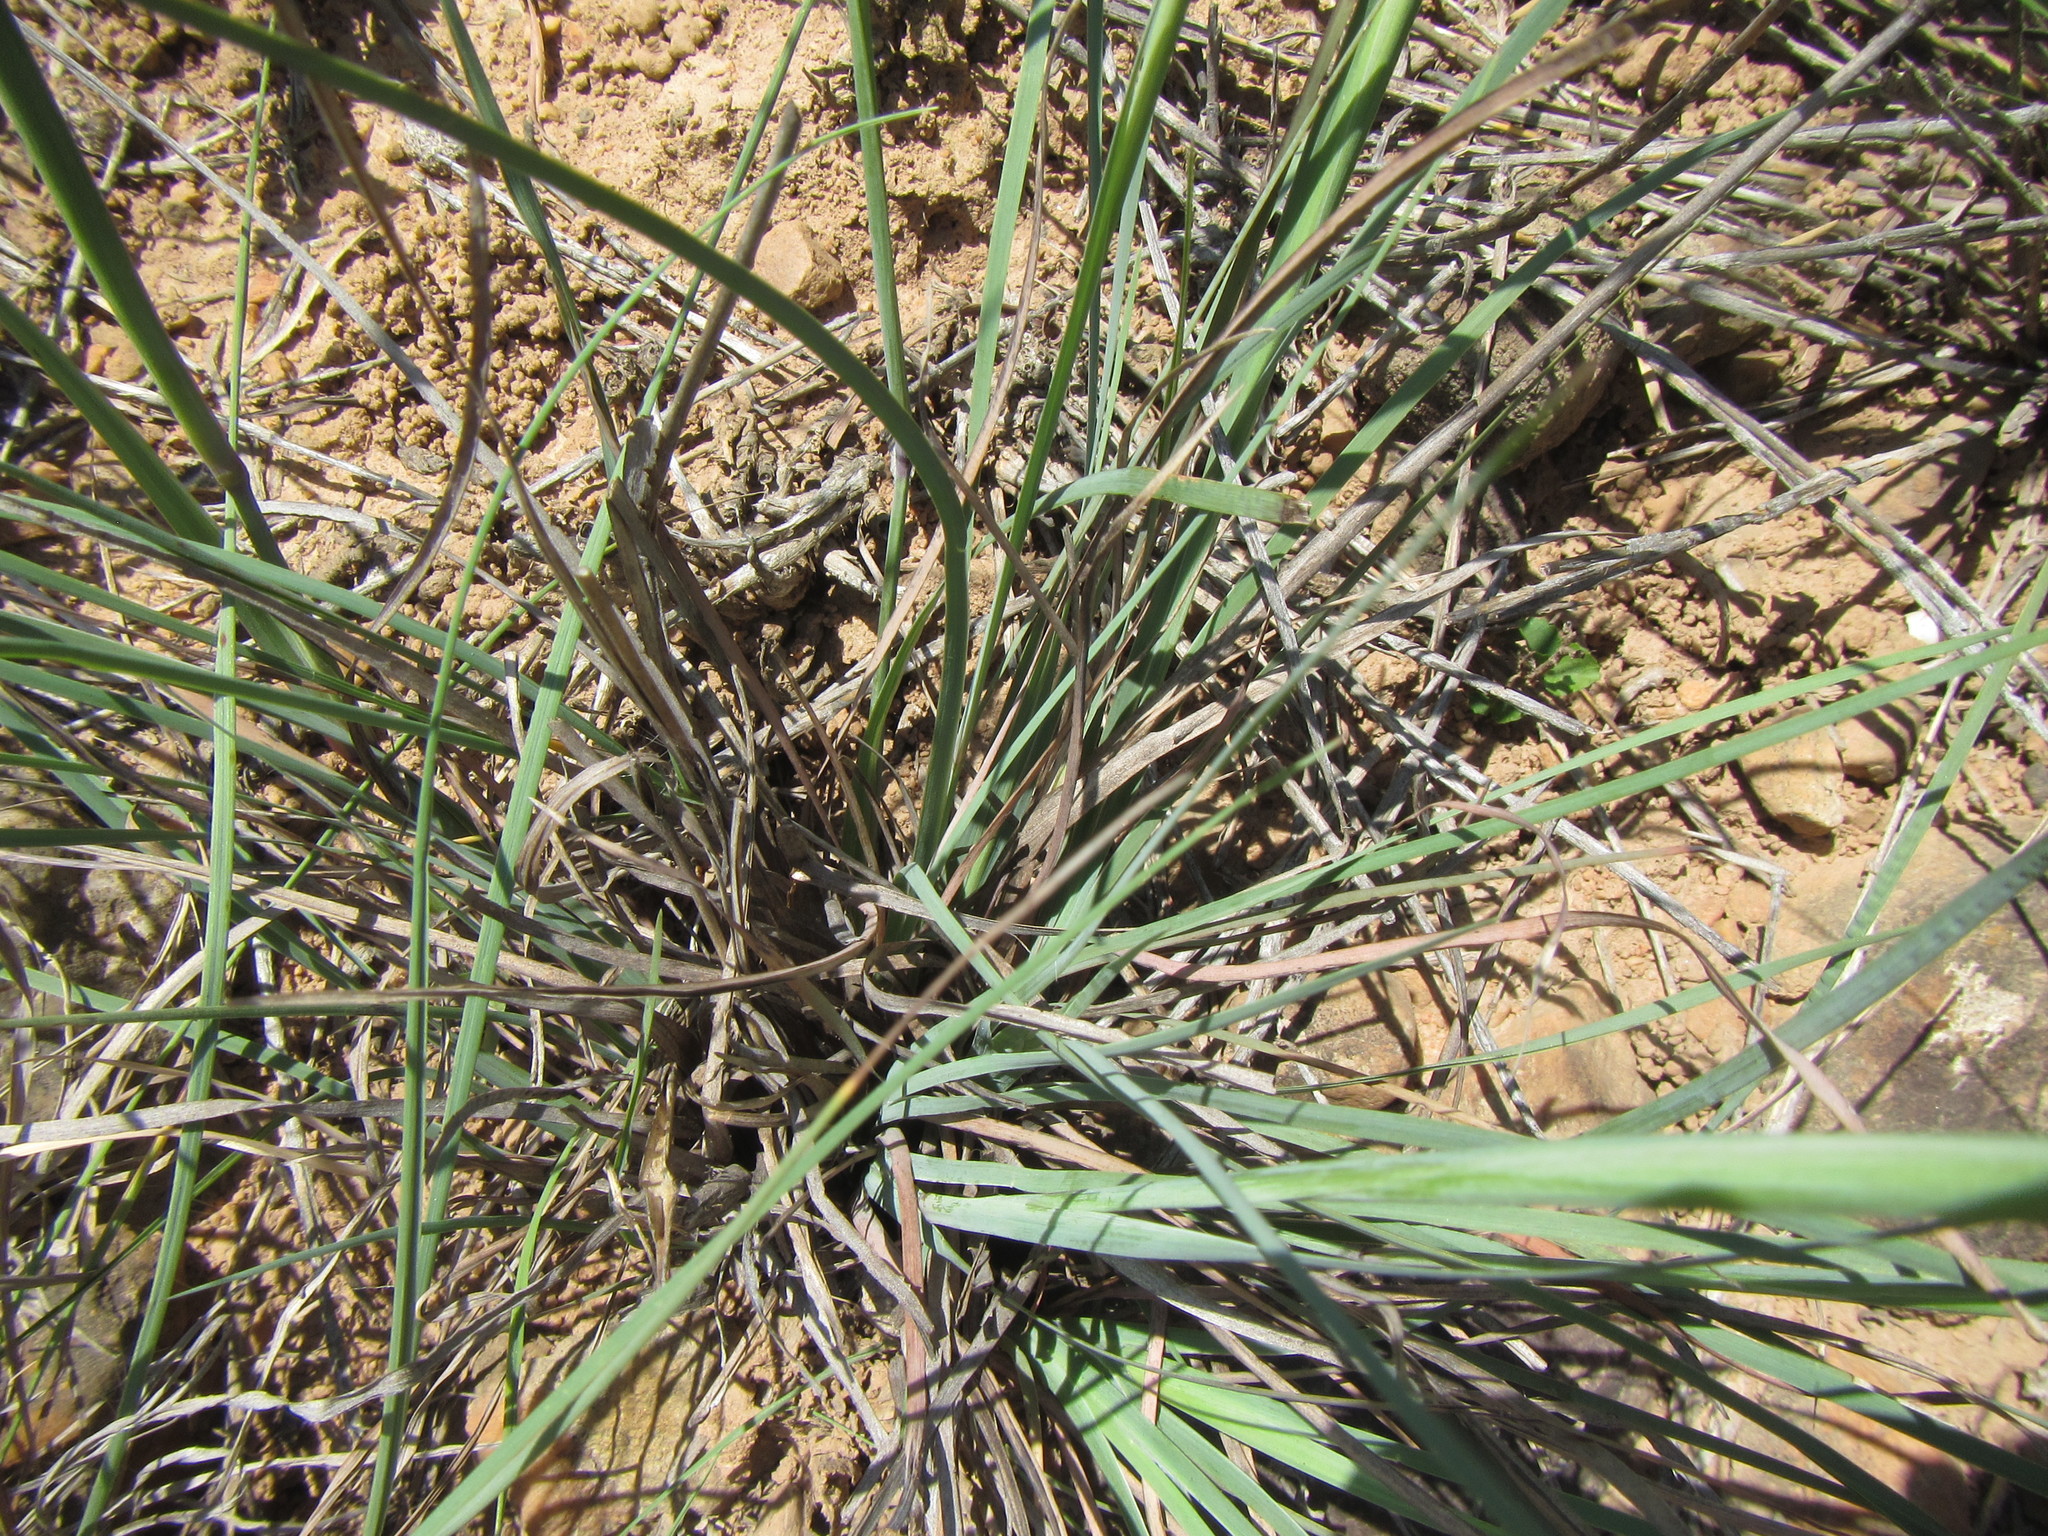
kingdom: Plantae
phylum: Tracheophyta
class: Liliopsida
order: Poales
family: Poaceae
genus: Eustachys
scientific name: Eustachys paspaloides
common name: Caribbean fingergrass
